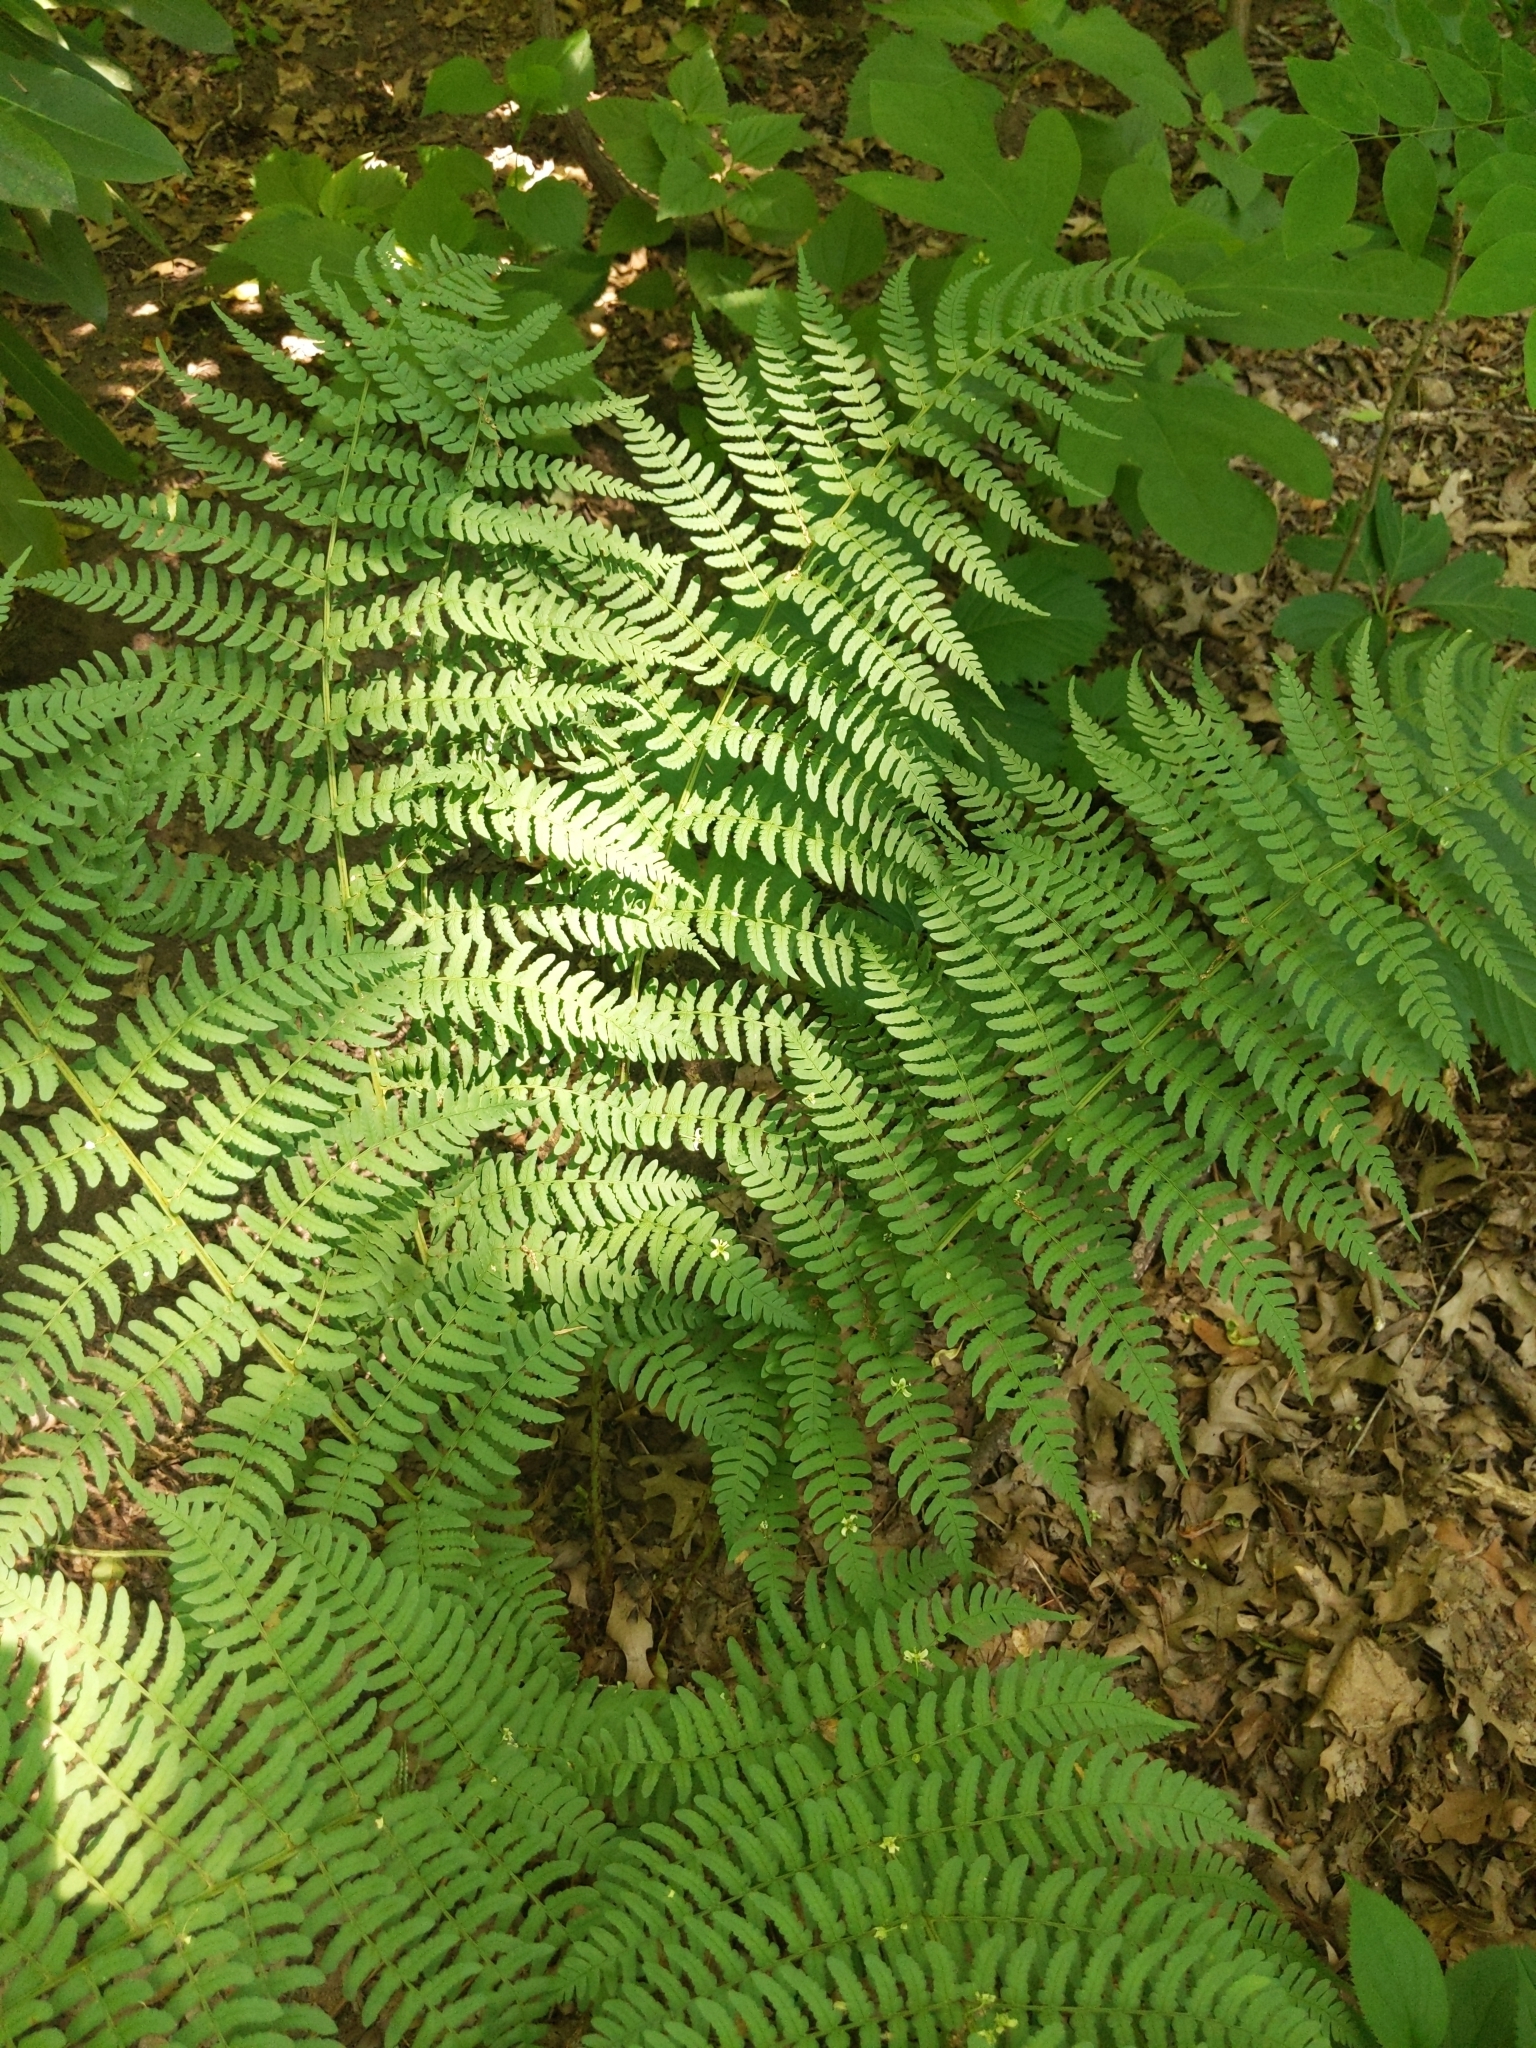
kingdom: Plantae
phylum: Tracheophyta
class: Polypodiopsida
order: Polypodiales
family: Dryopteridaceae
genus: Dryopteris
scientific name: Dryopteris marginalis
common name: Marginal wood fern
